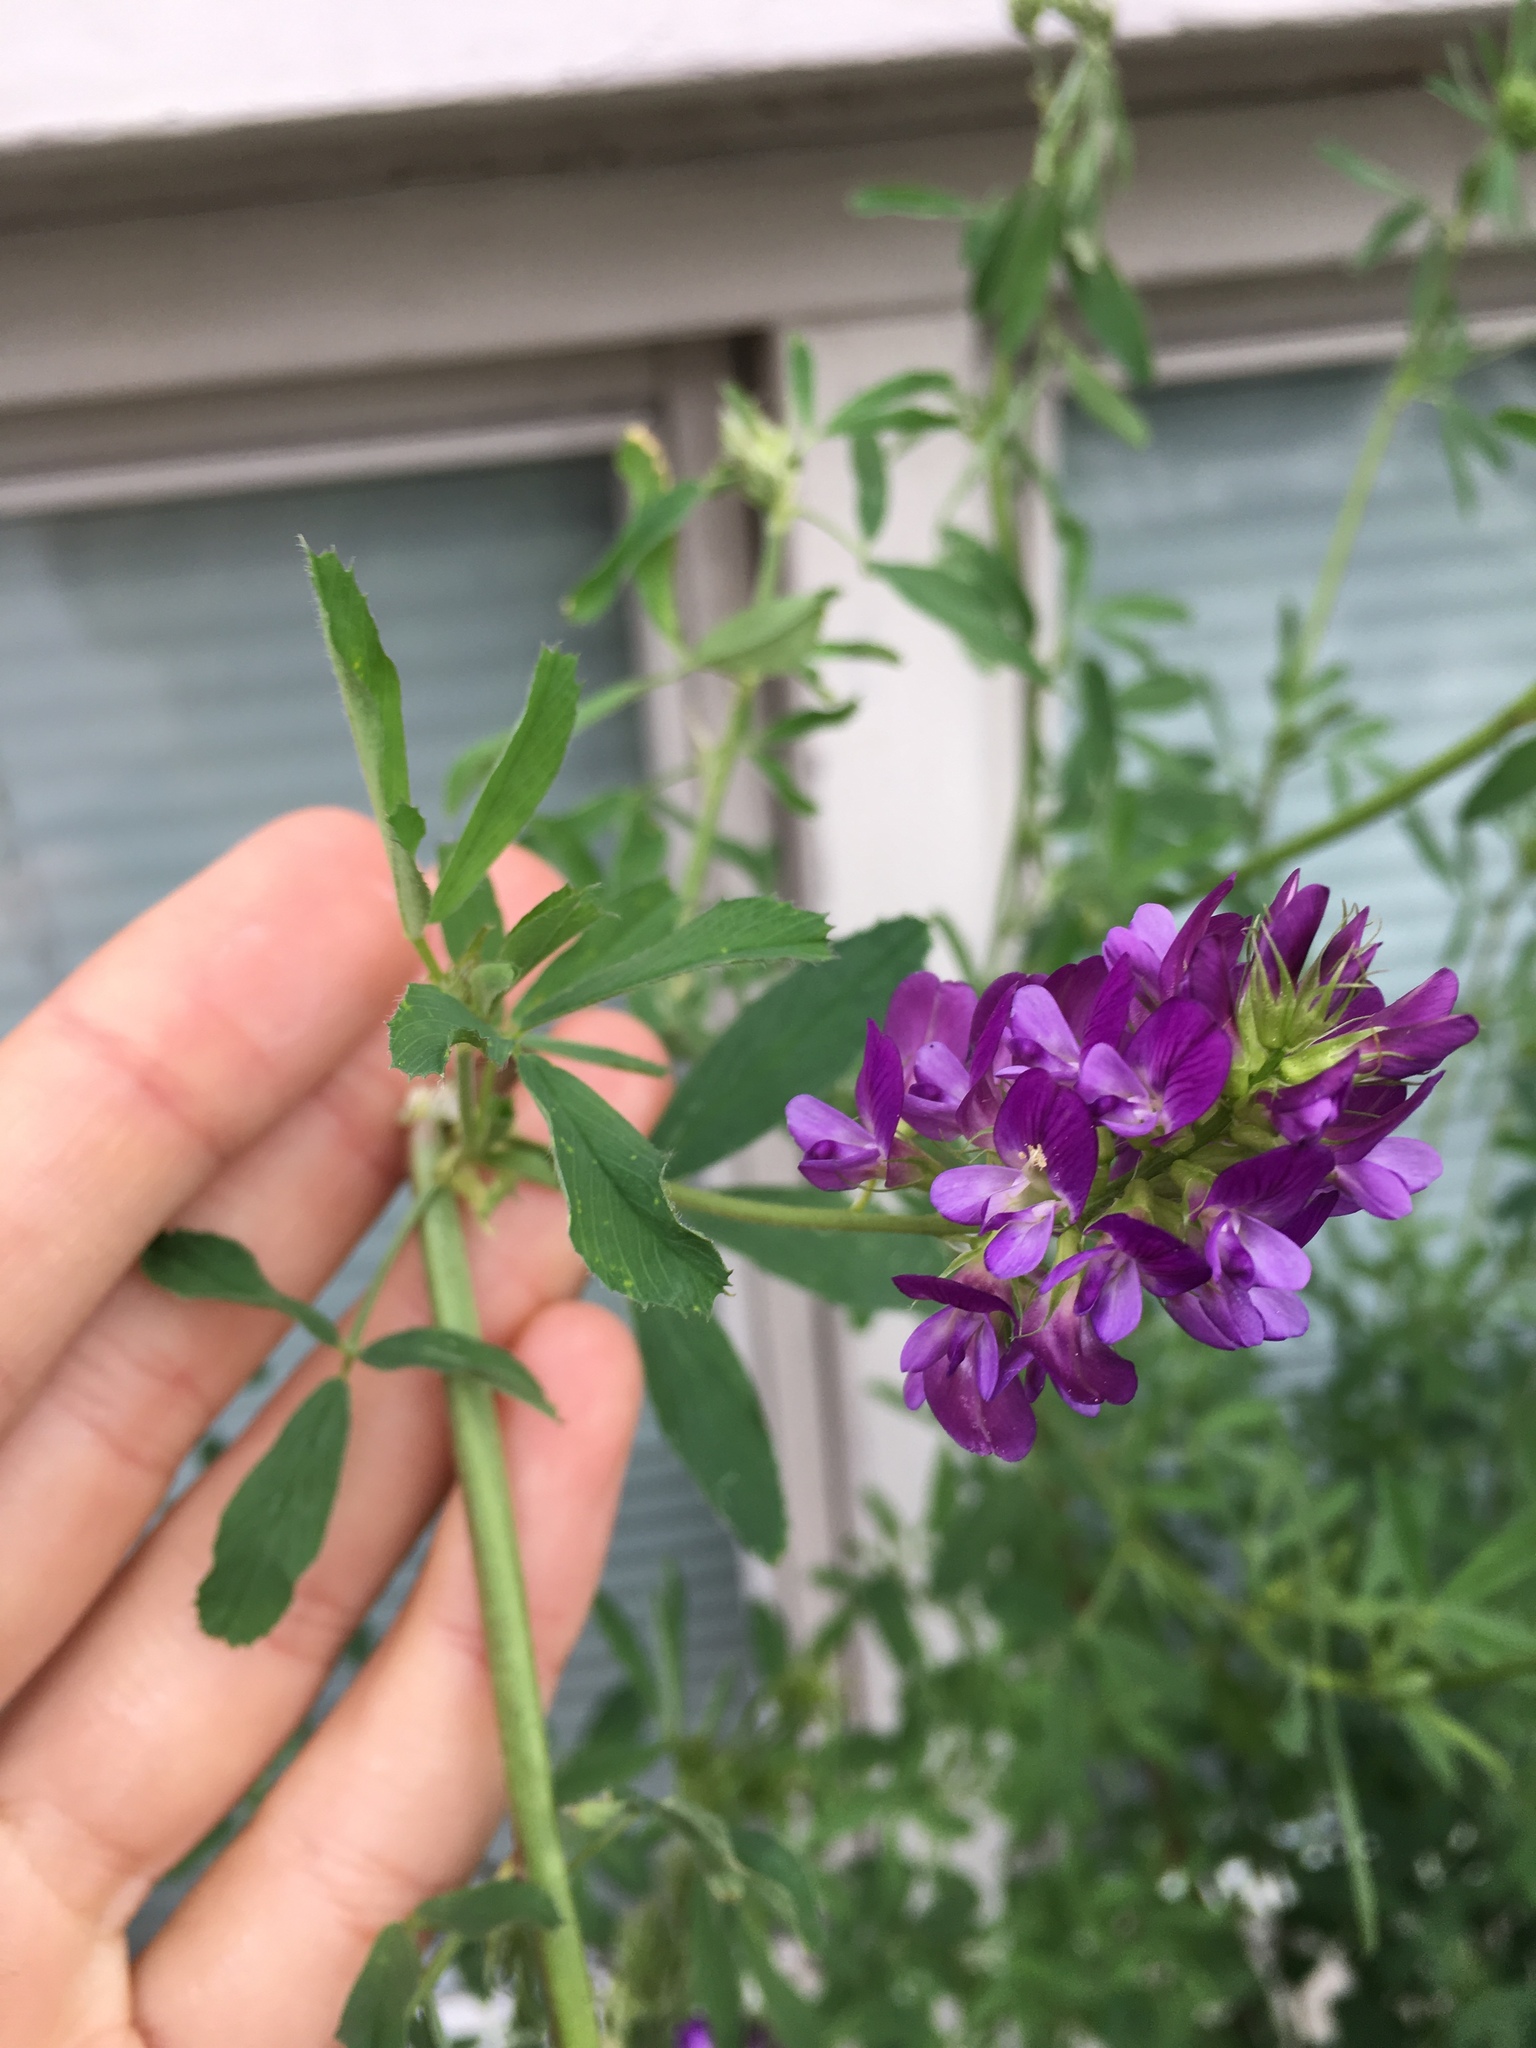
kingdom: Plantae
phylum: Tracheophyta
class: Magnoliopsida
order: Fabales
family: Fabaceae
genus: Medicago
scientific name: Medicago sativa
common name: Alfalfa
